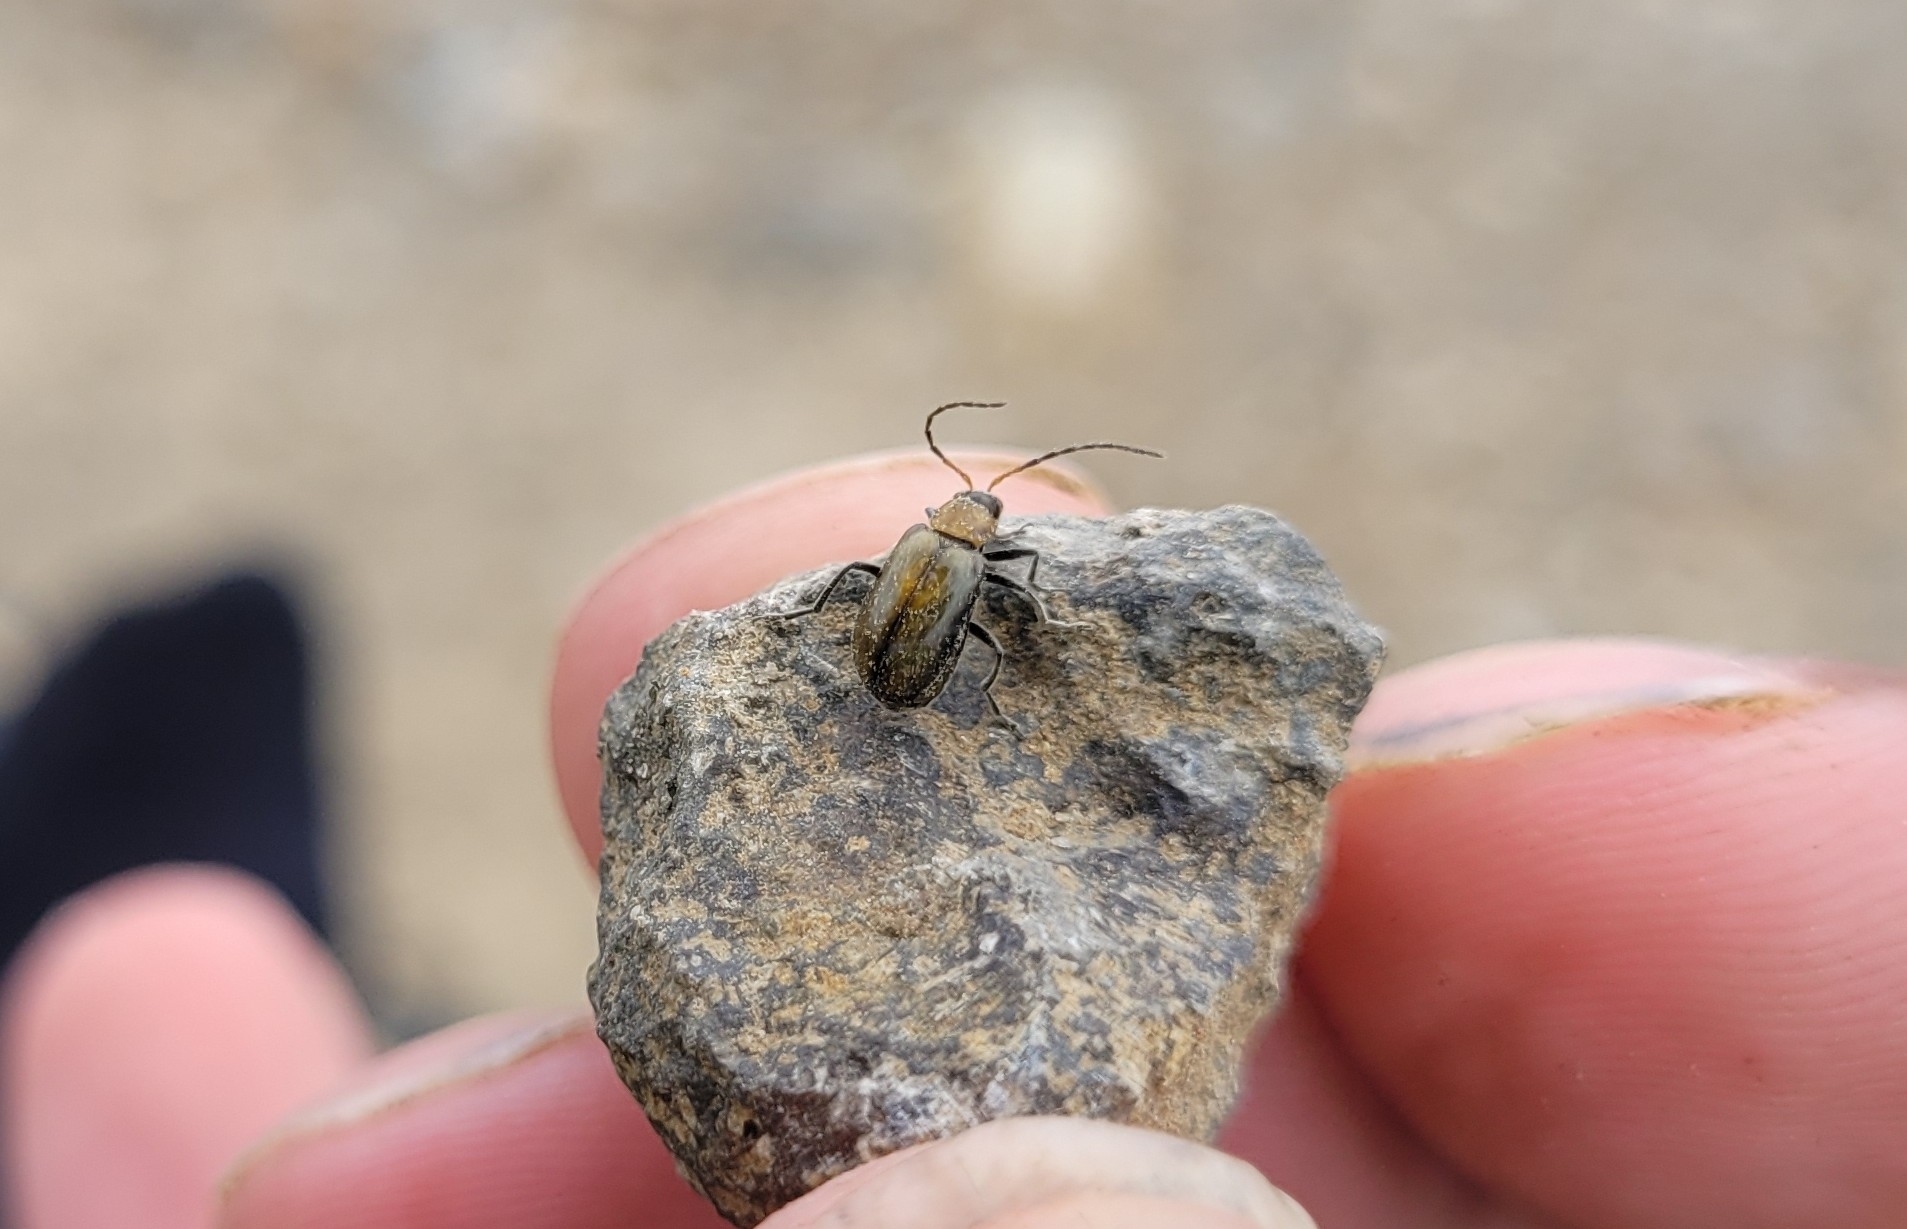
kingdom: Animalia
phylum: Arthropoda
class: Insecta
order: Coleoptera
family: Chrysomelidae
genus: Atrachya
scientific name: Atrachya menetriesi
